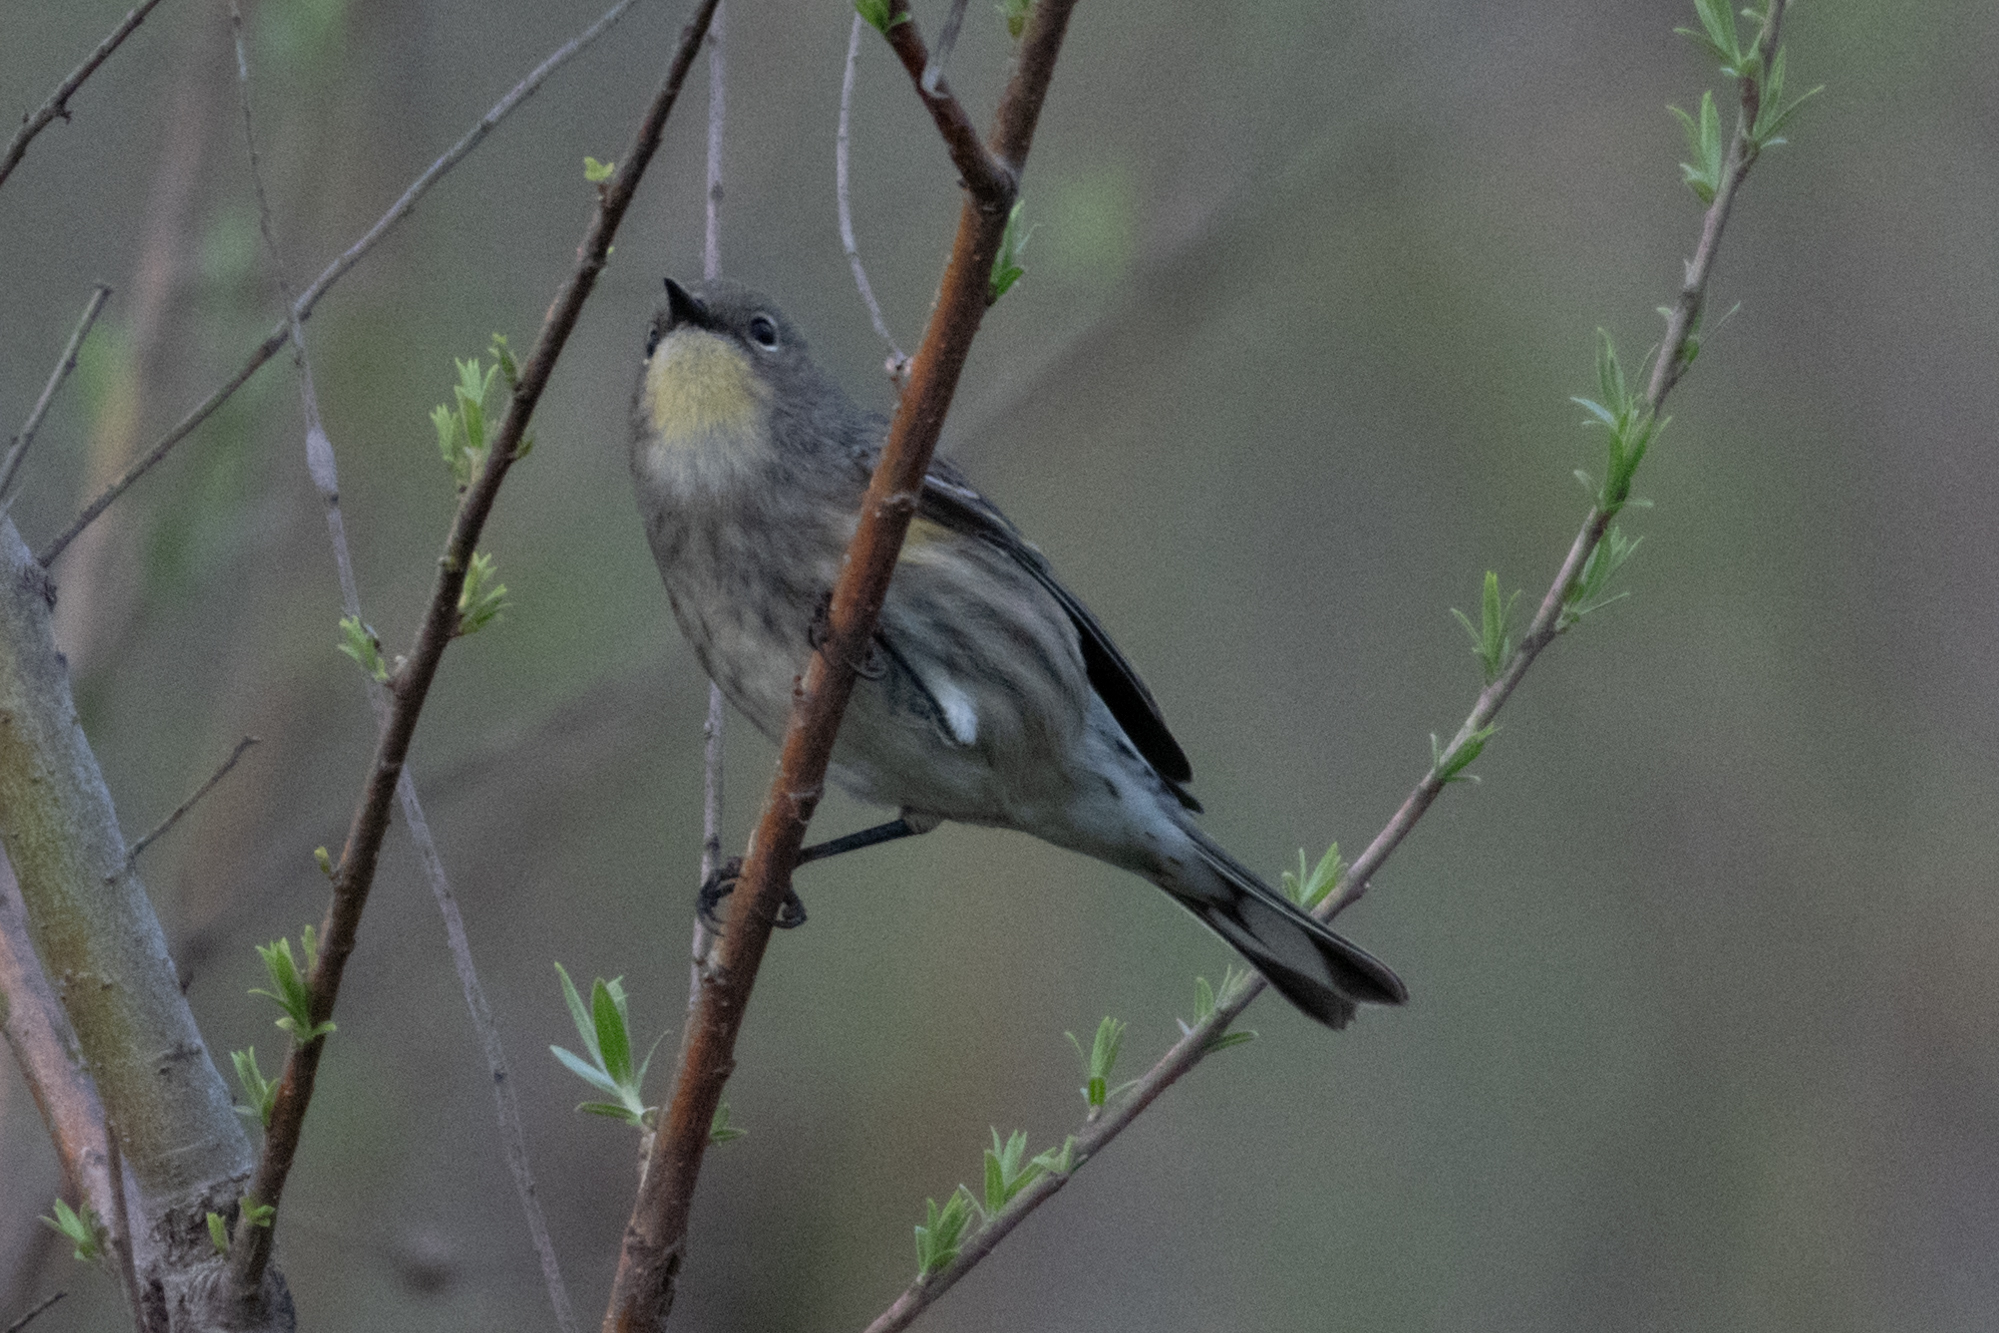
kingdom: Animalia
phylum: Chordata
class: Aves
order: Passeriformes
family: Parulidae
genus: Setophaga
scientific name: Setophaga coronata
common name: Myrtle warbler
